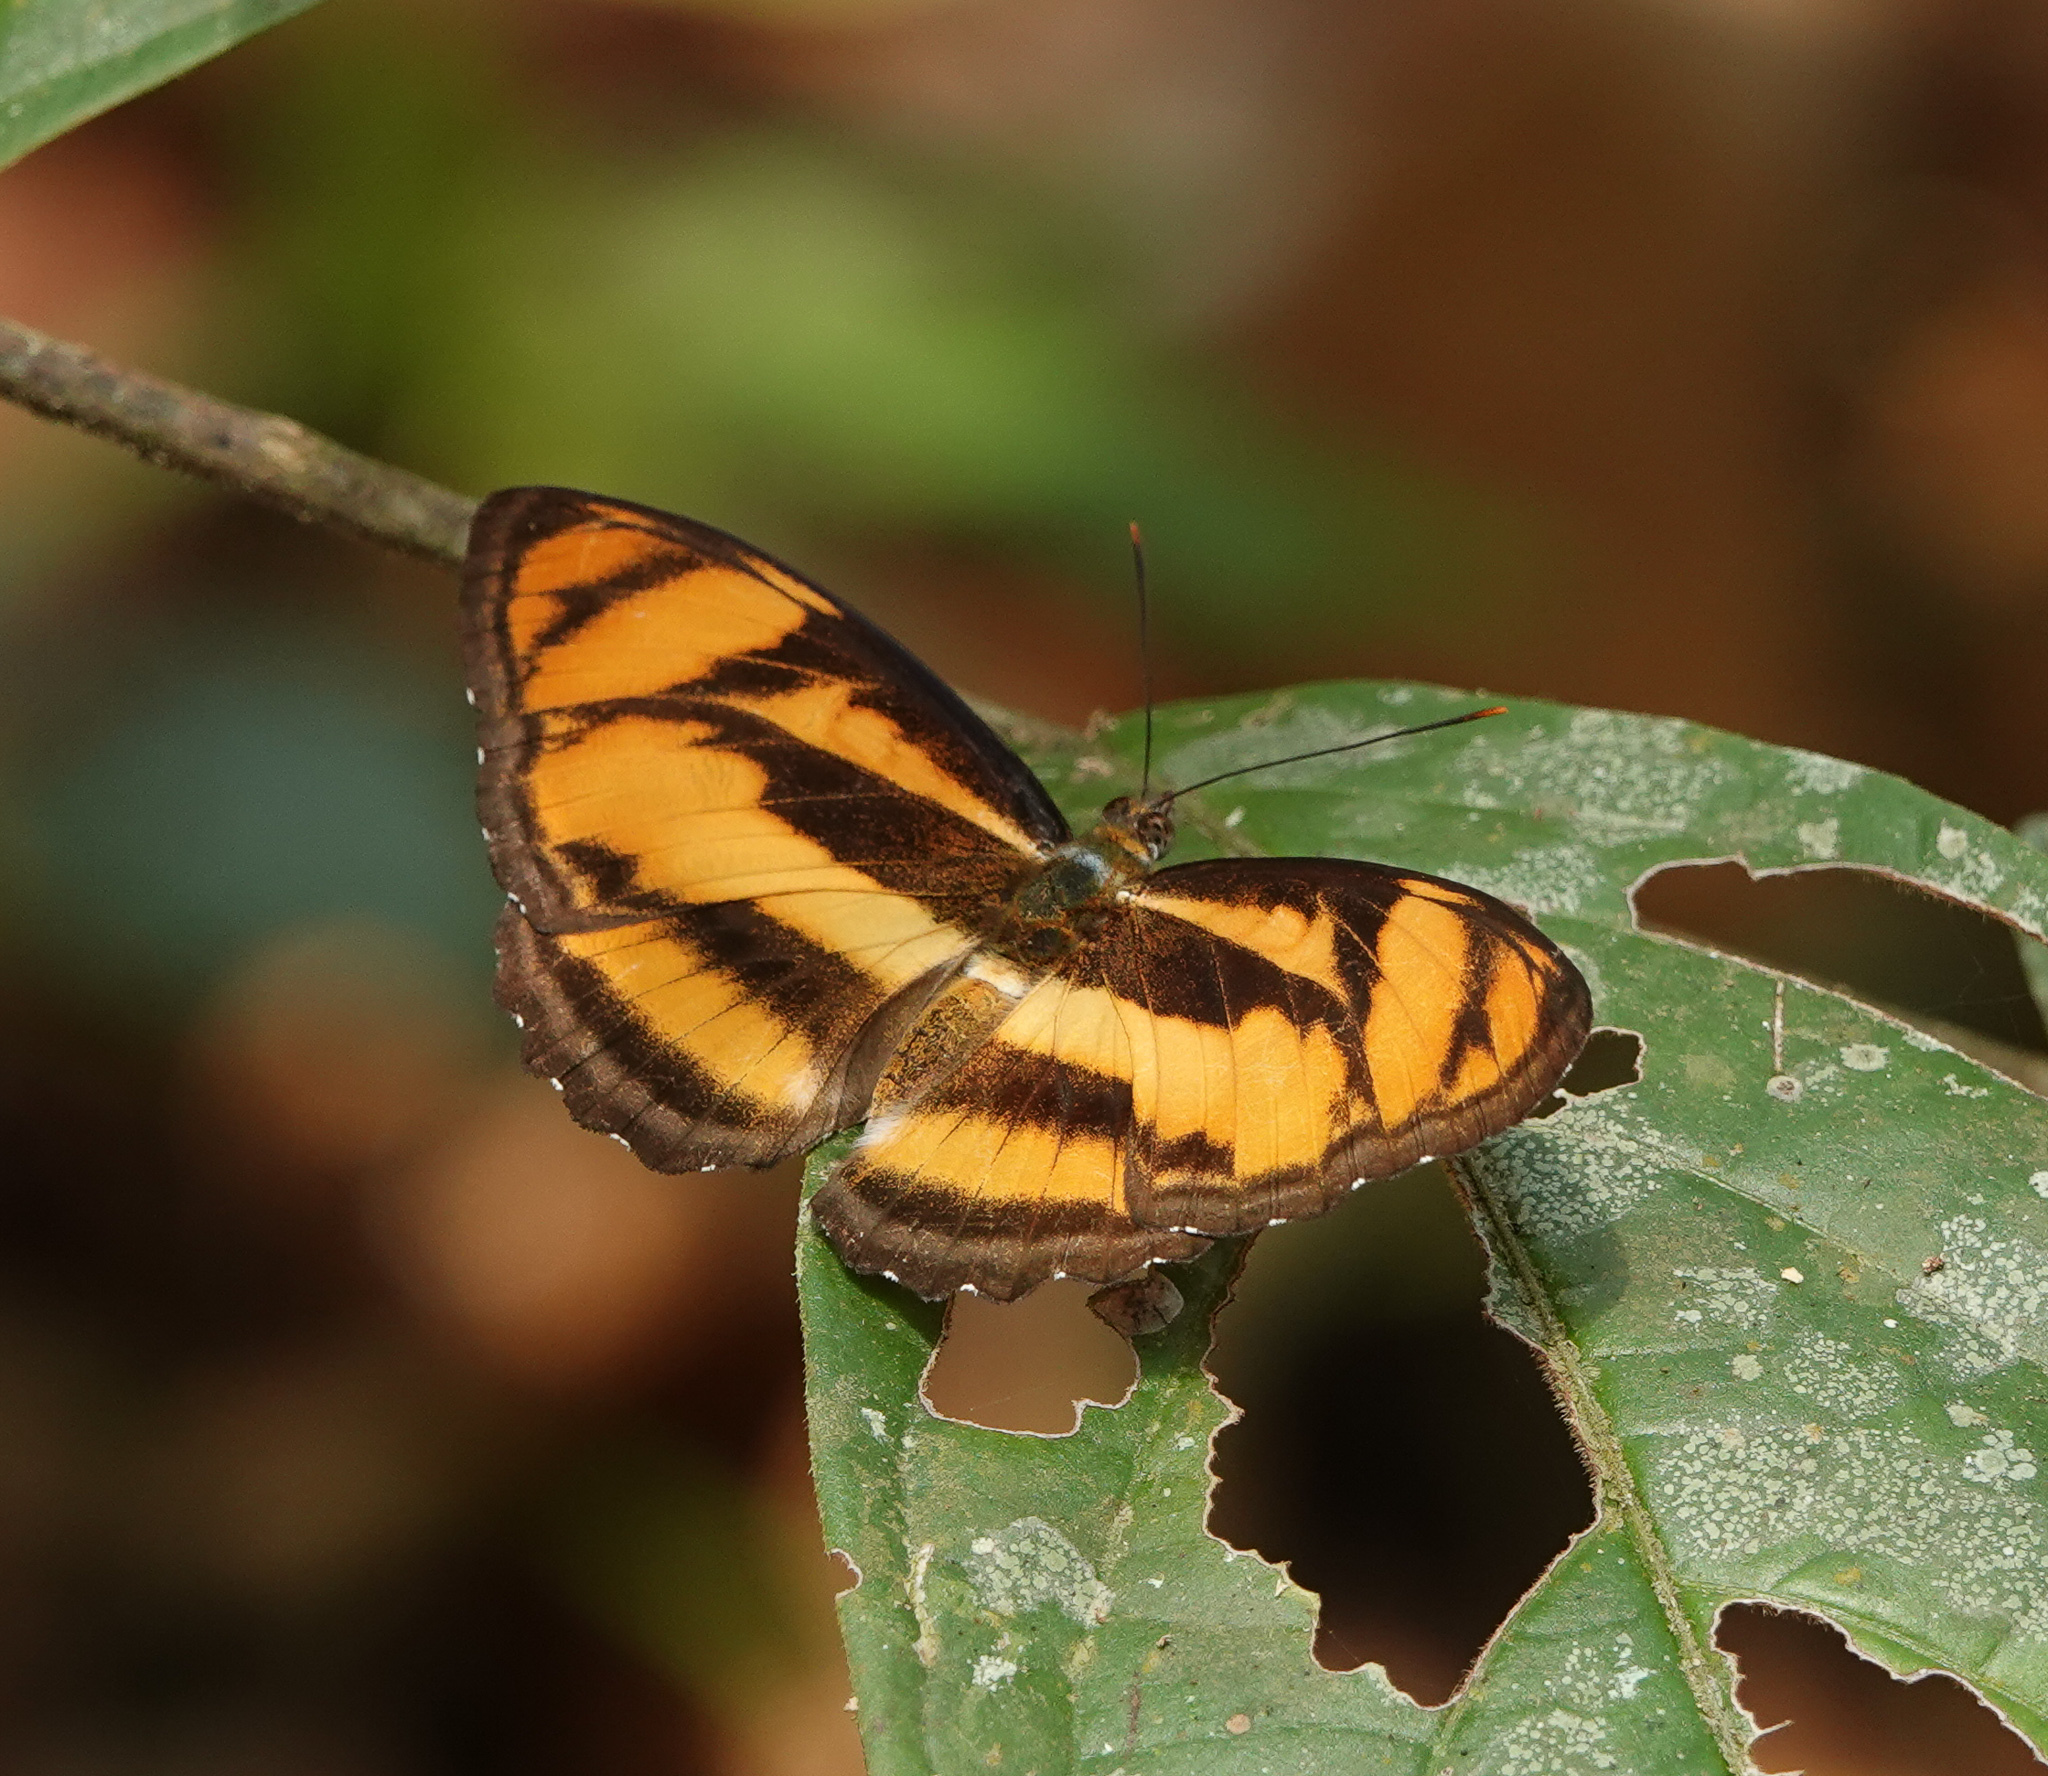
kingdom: Animalia
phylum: Arthropoda
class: Insecta
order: Lepidoptera
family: Nymphalidae
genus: Parathyma
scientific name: Parathyma nefte
